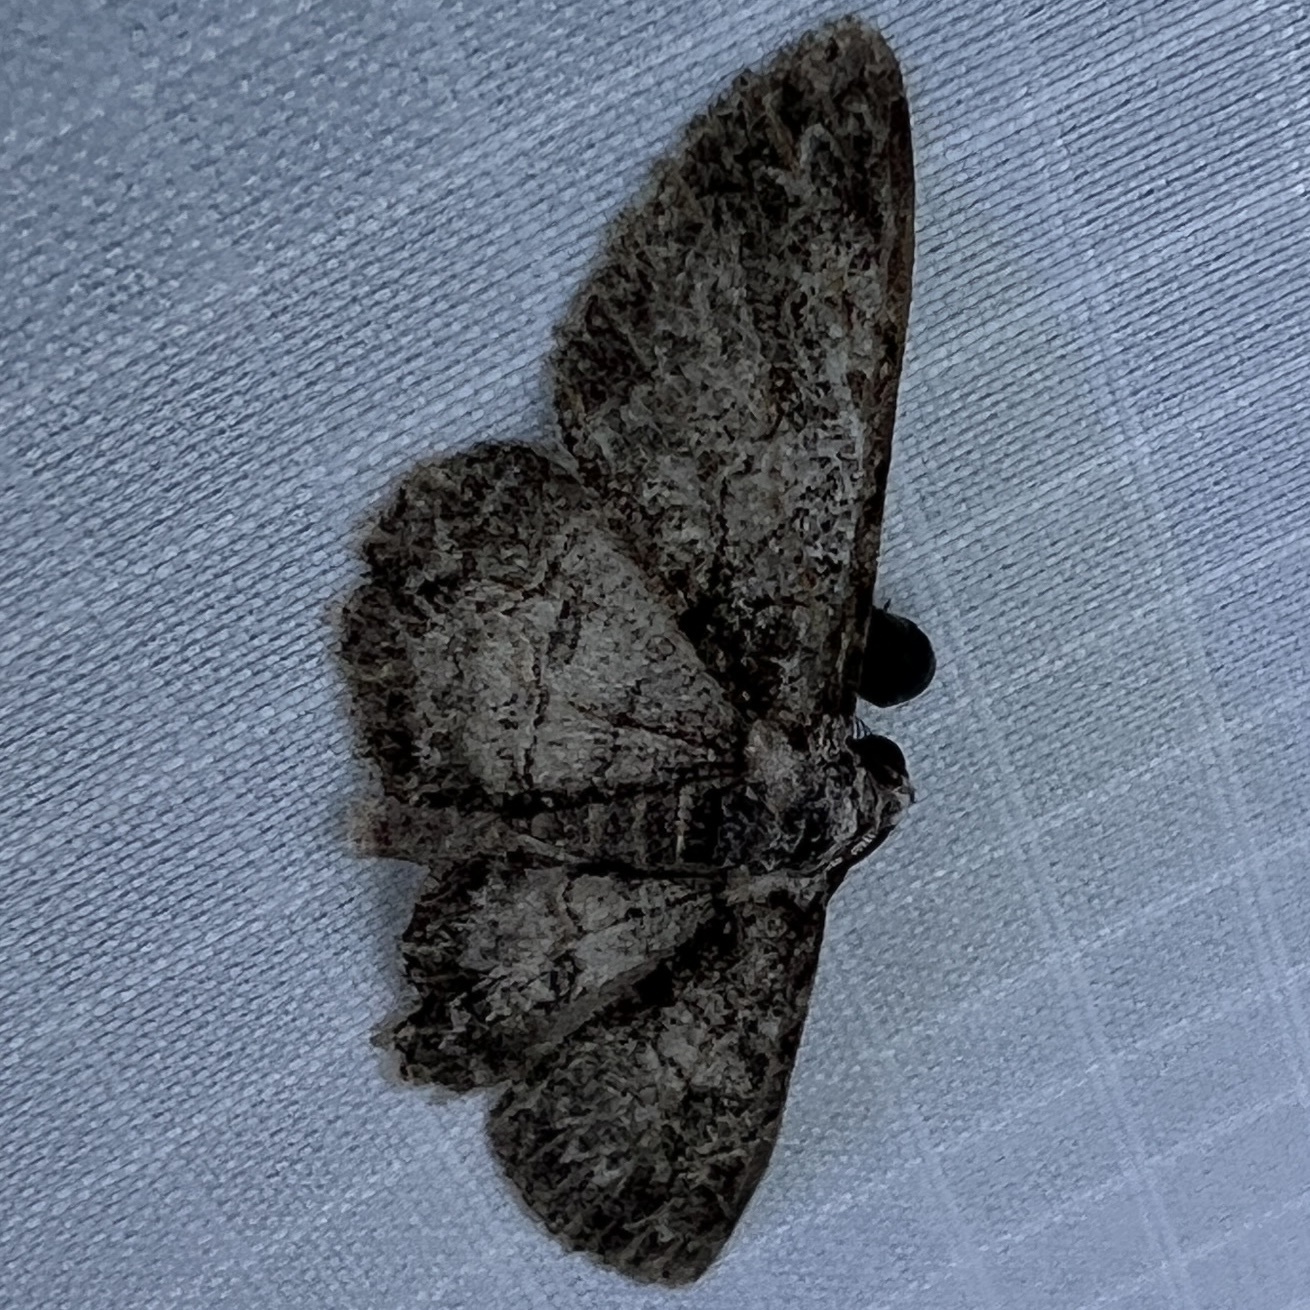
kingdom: Animalia
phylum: Arthropoda
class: Insecta
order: Lepidoptera
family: Geometridae
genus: Iridopsis
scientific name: Iridopsis fragilaria
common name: Moth
